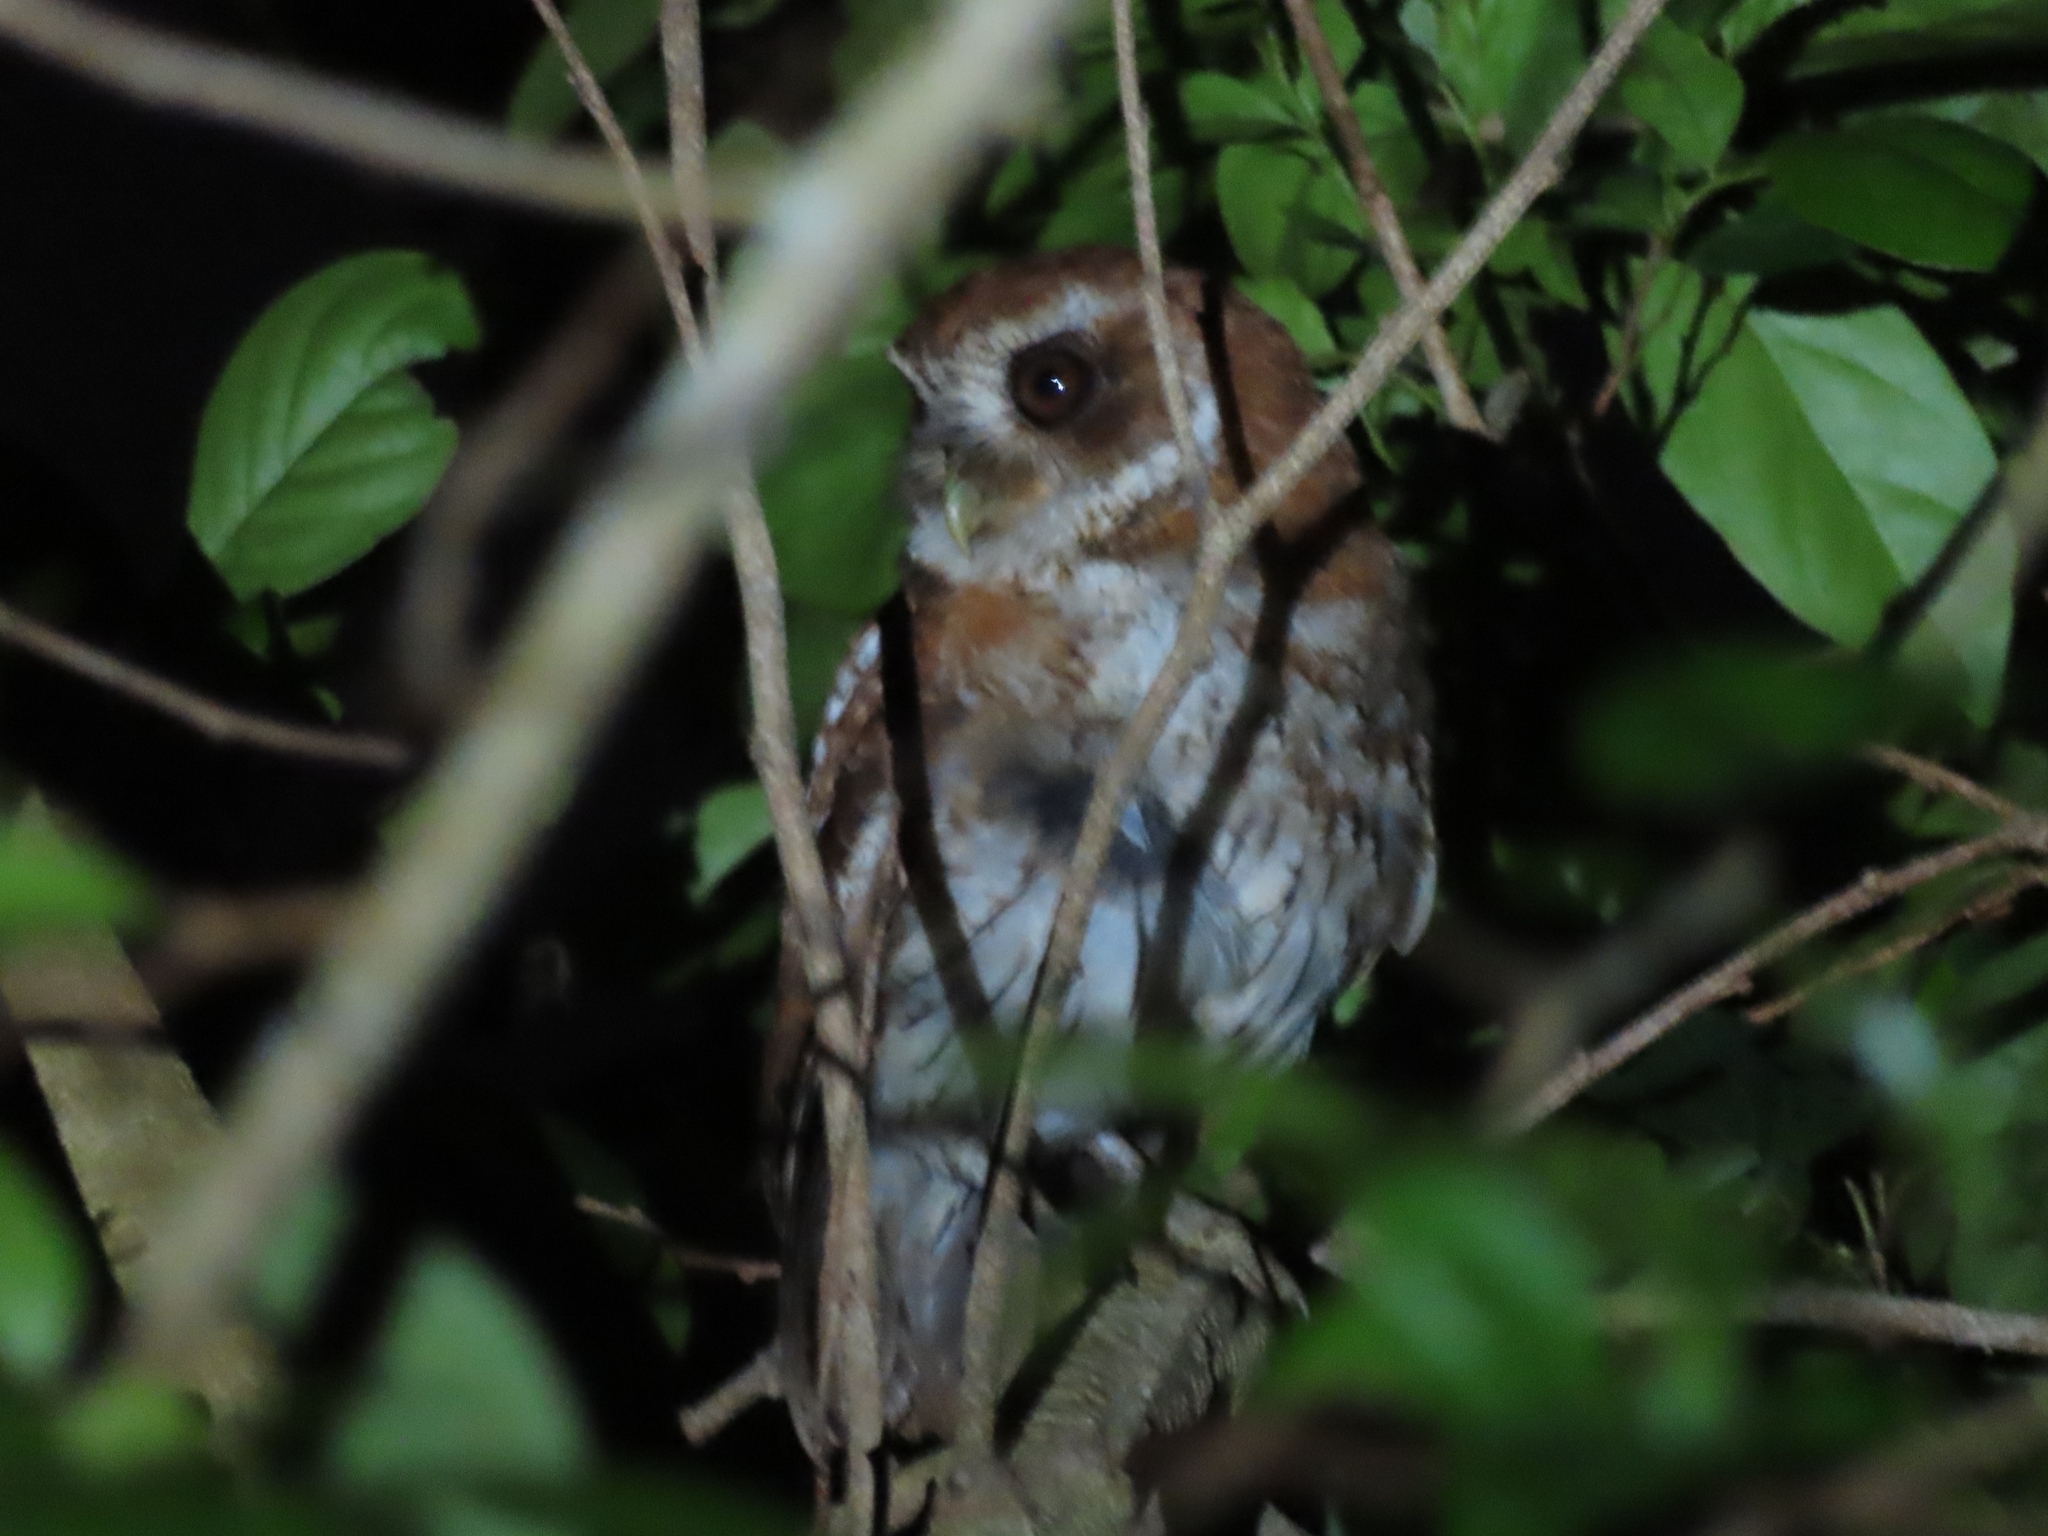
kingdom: Animalia
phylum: Chordata
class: Aves
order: Strigiformes
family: Strigidae
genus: Megascops
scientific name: Megascops nudipes
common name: Puerto rican screech-owl
